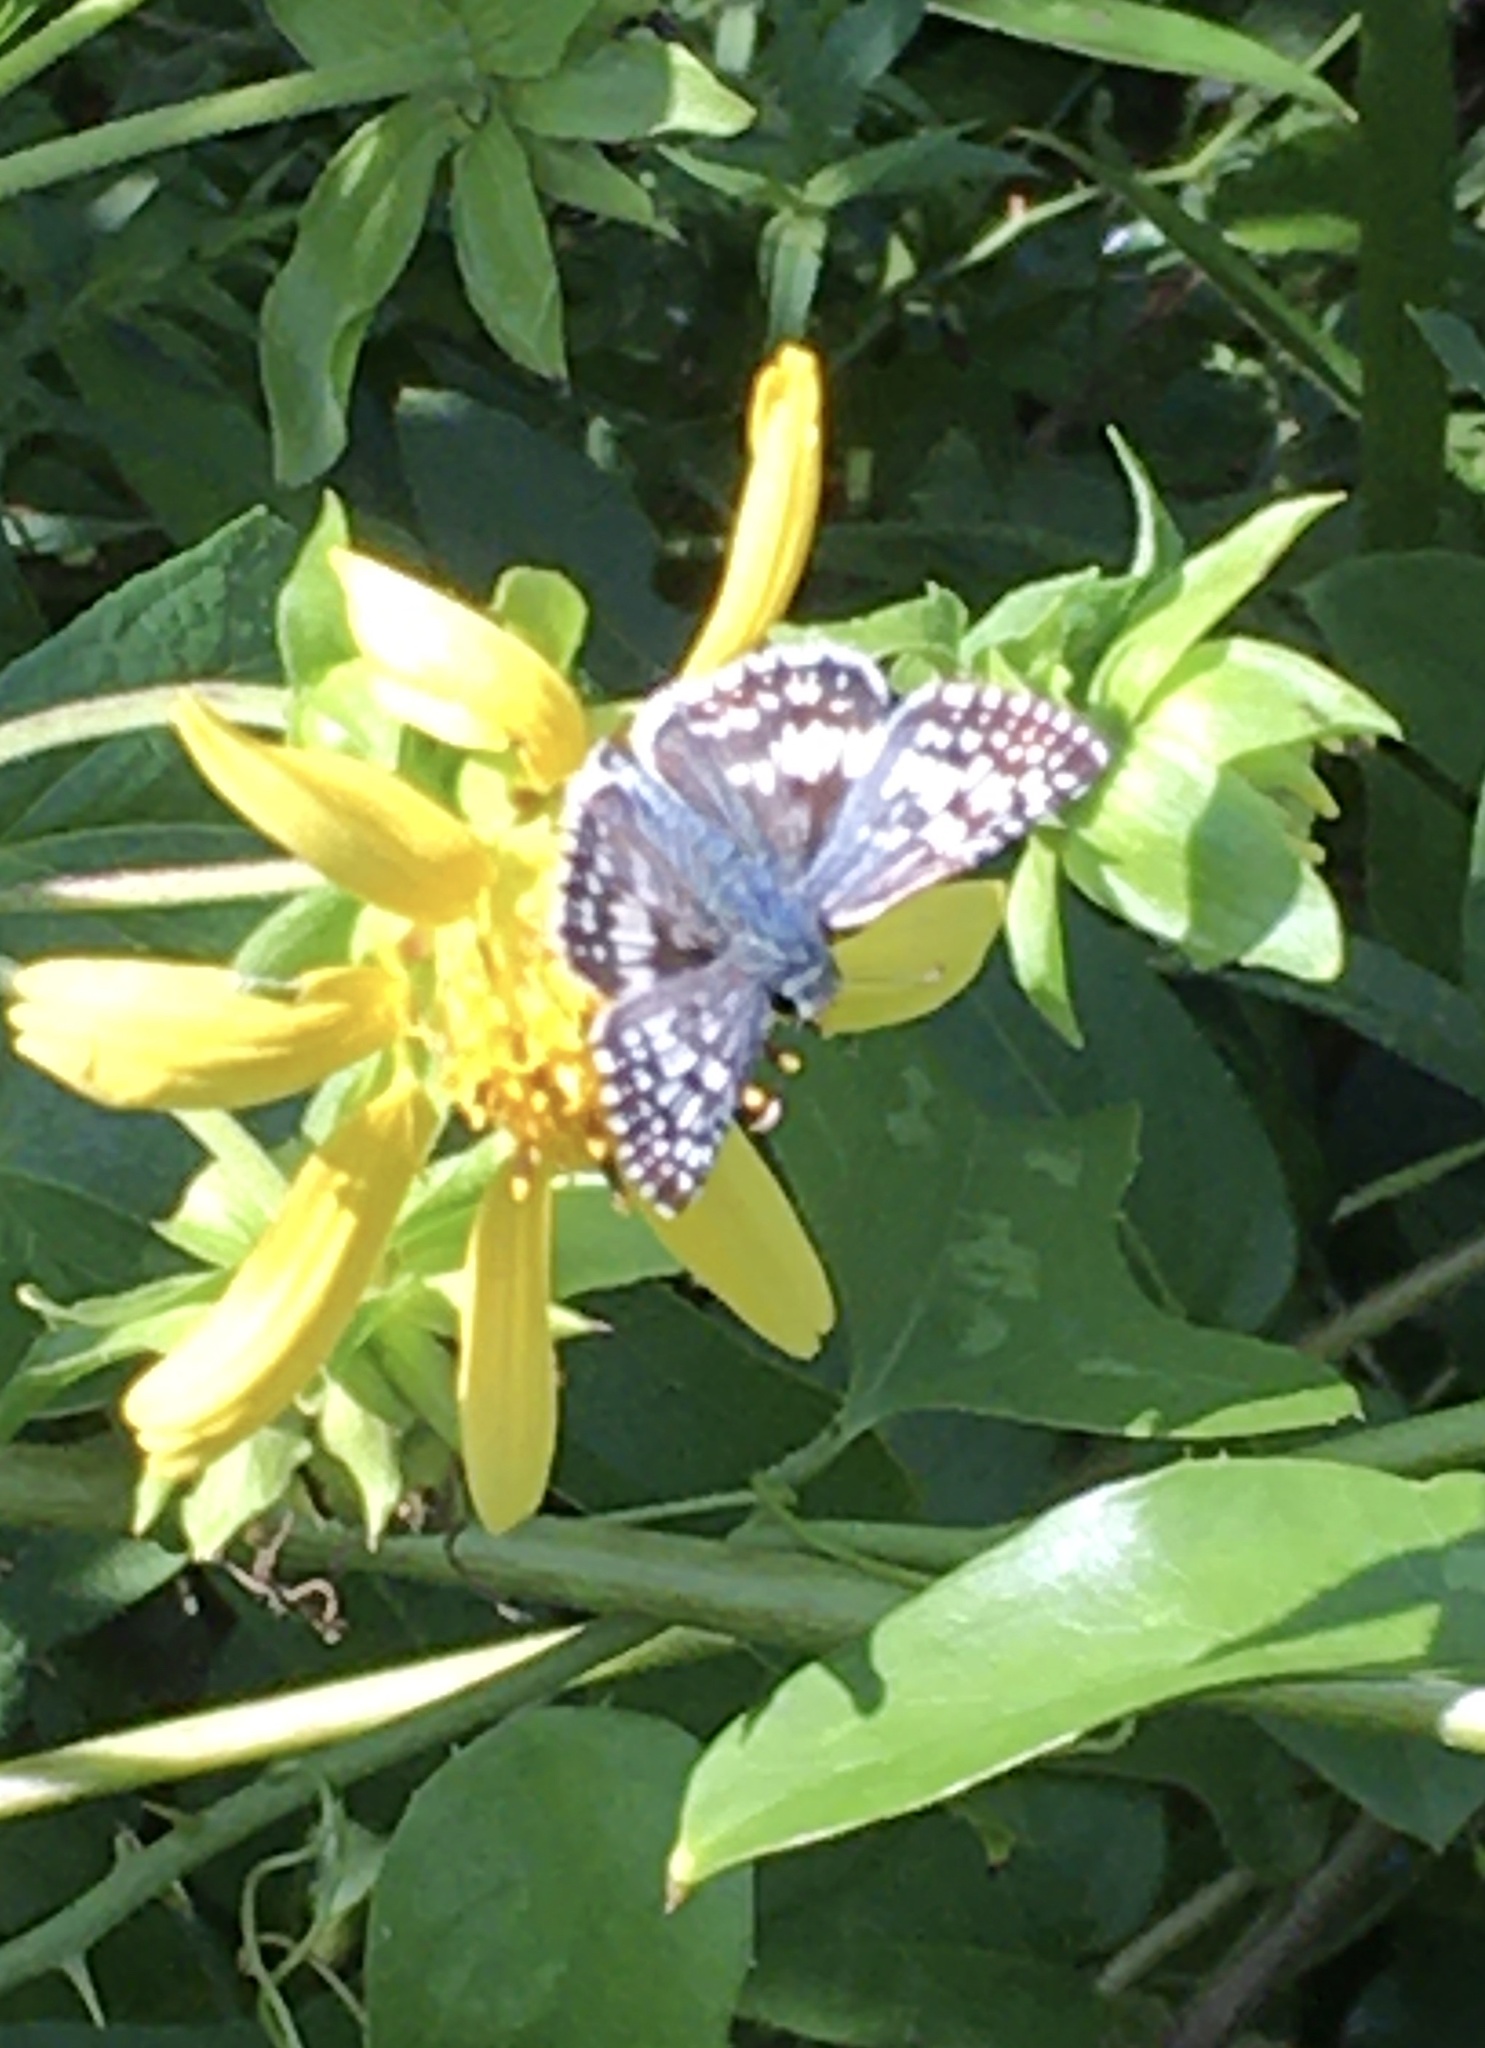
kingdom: Animalia
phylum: Arthropoda
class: Insecta
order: Lepidoptera
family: Hesperiidae
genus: Burnsius
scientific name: Burnsius
